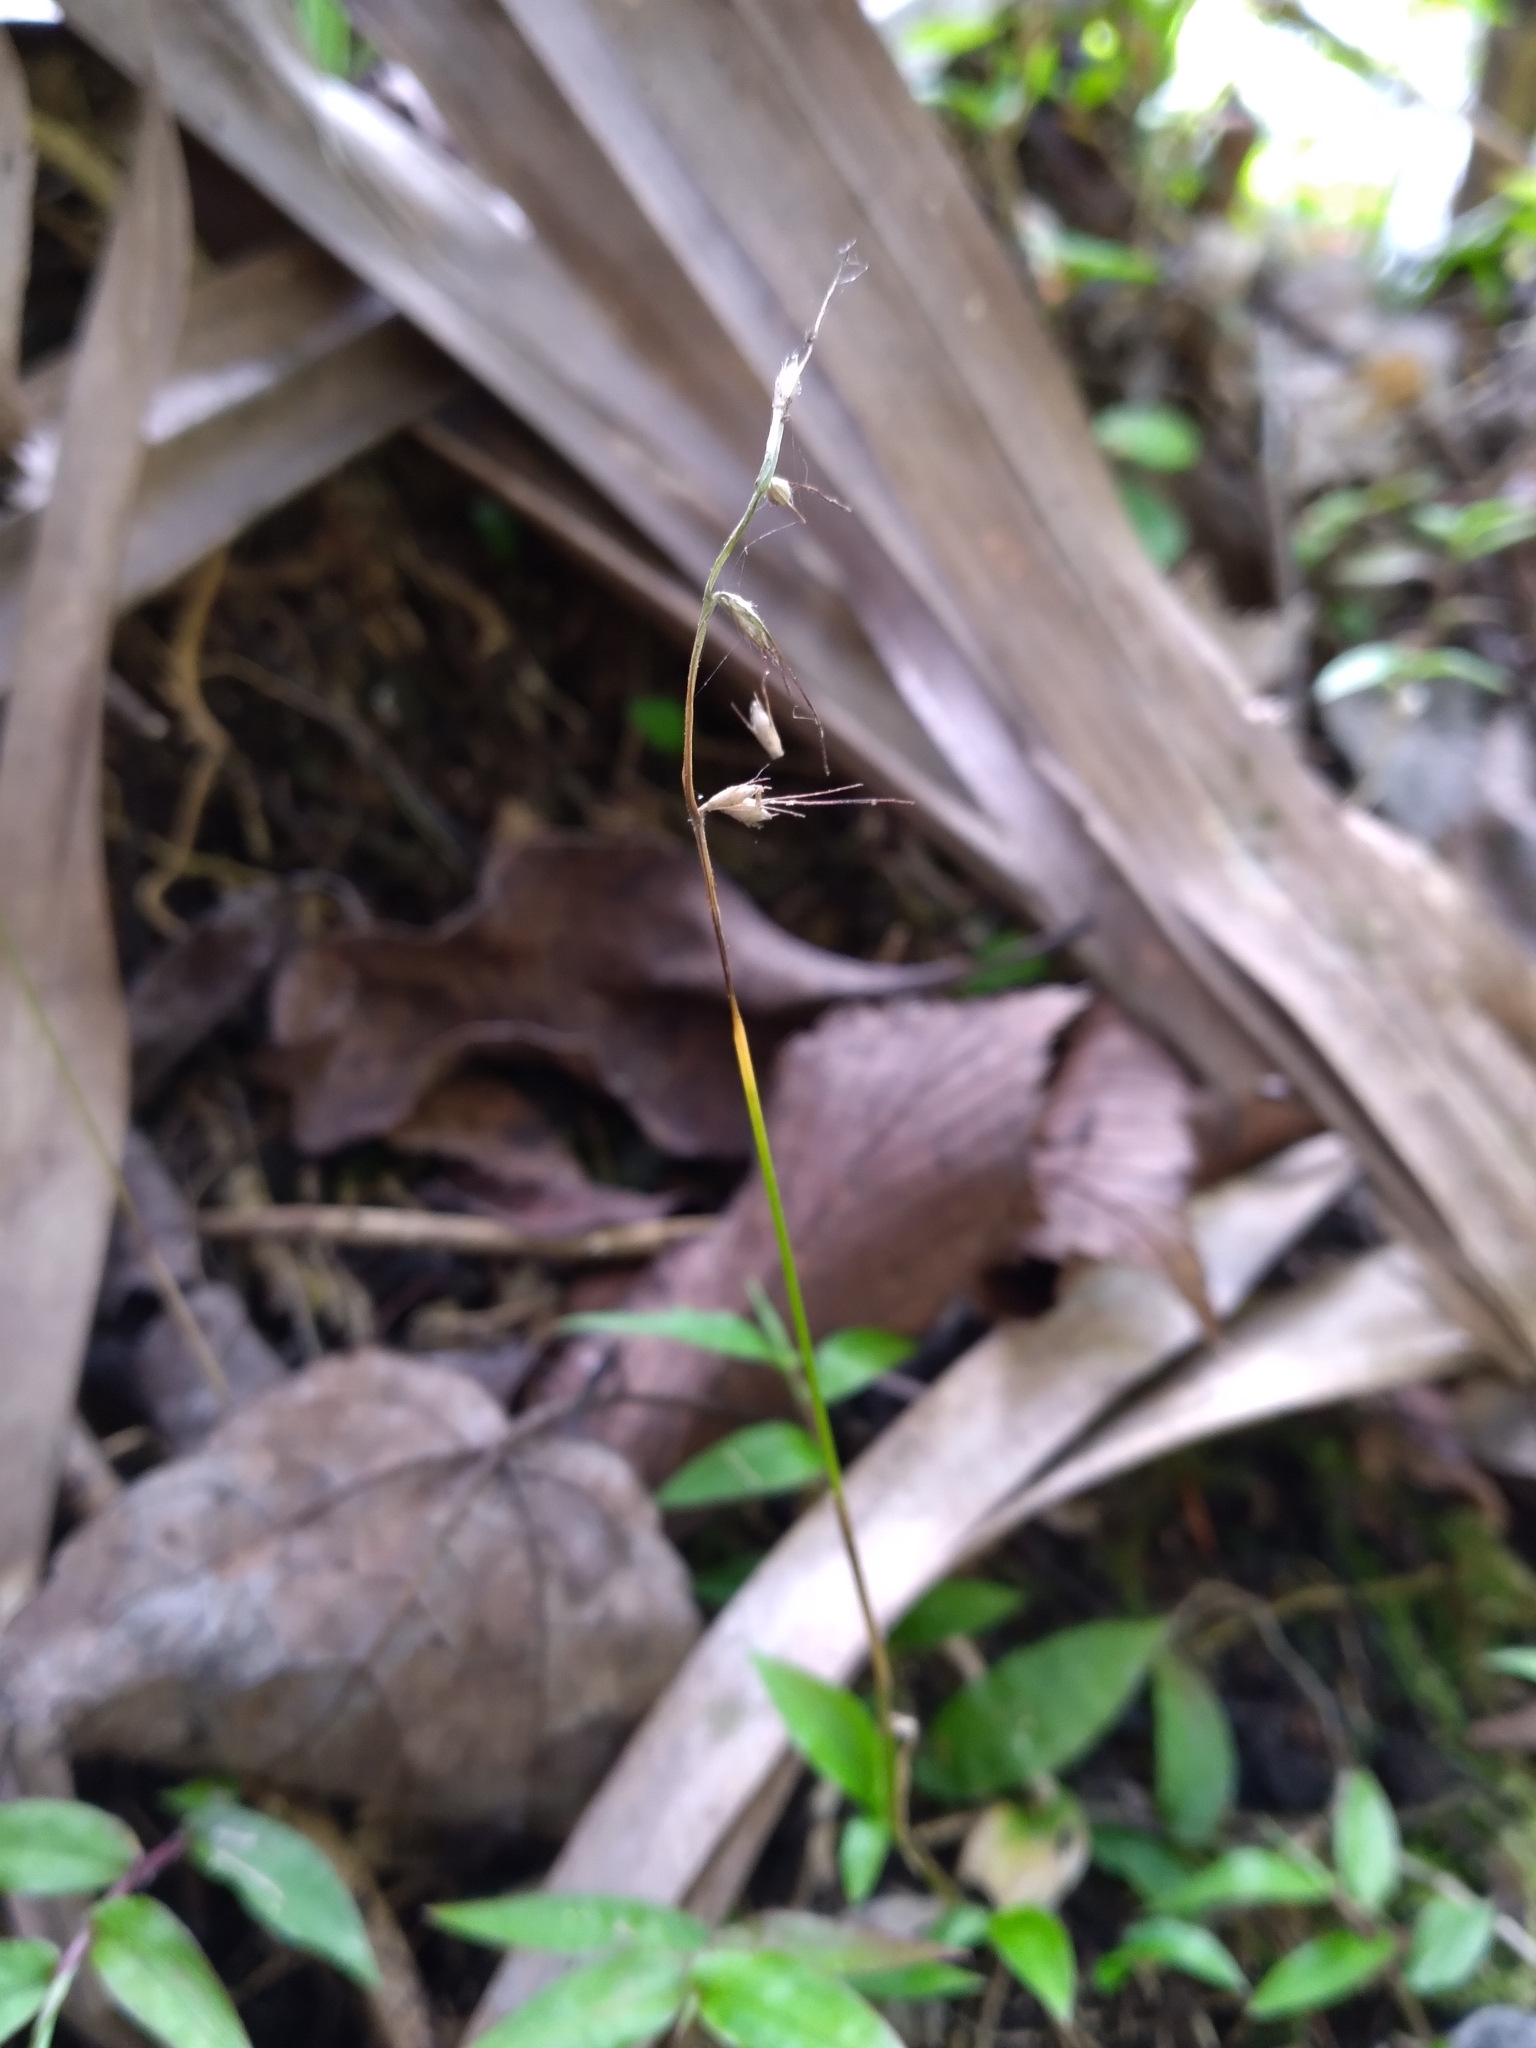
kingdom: Plantae
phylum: Tracheophyta
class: Liliopsida
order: Poales
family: Poaceae
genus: Oplismenus
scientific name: Oplismenus hirtellus
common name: Basketgrass
